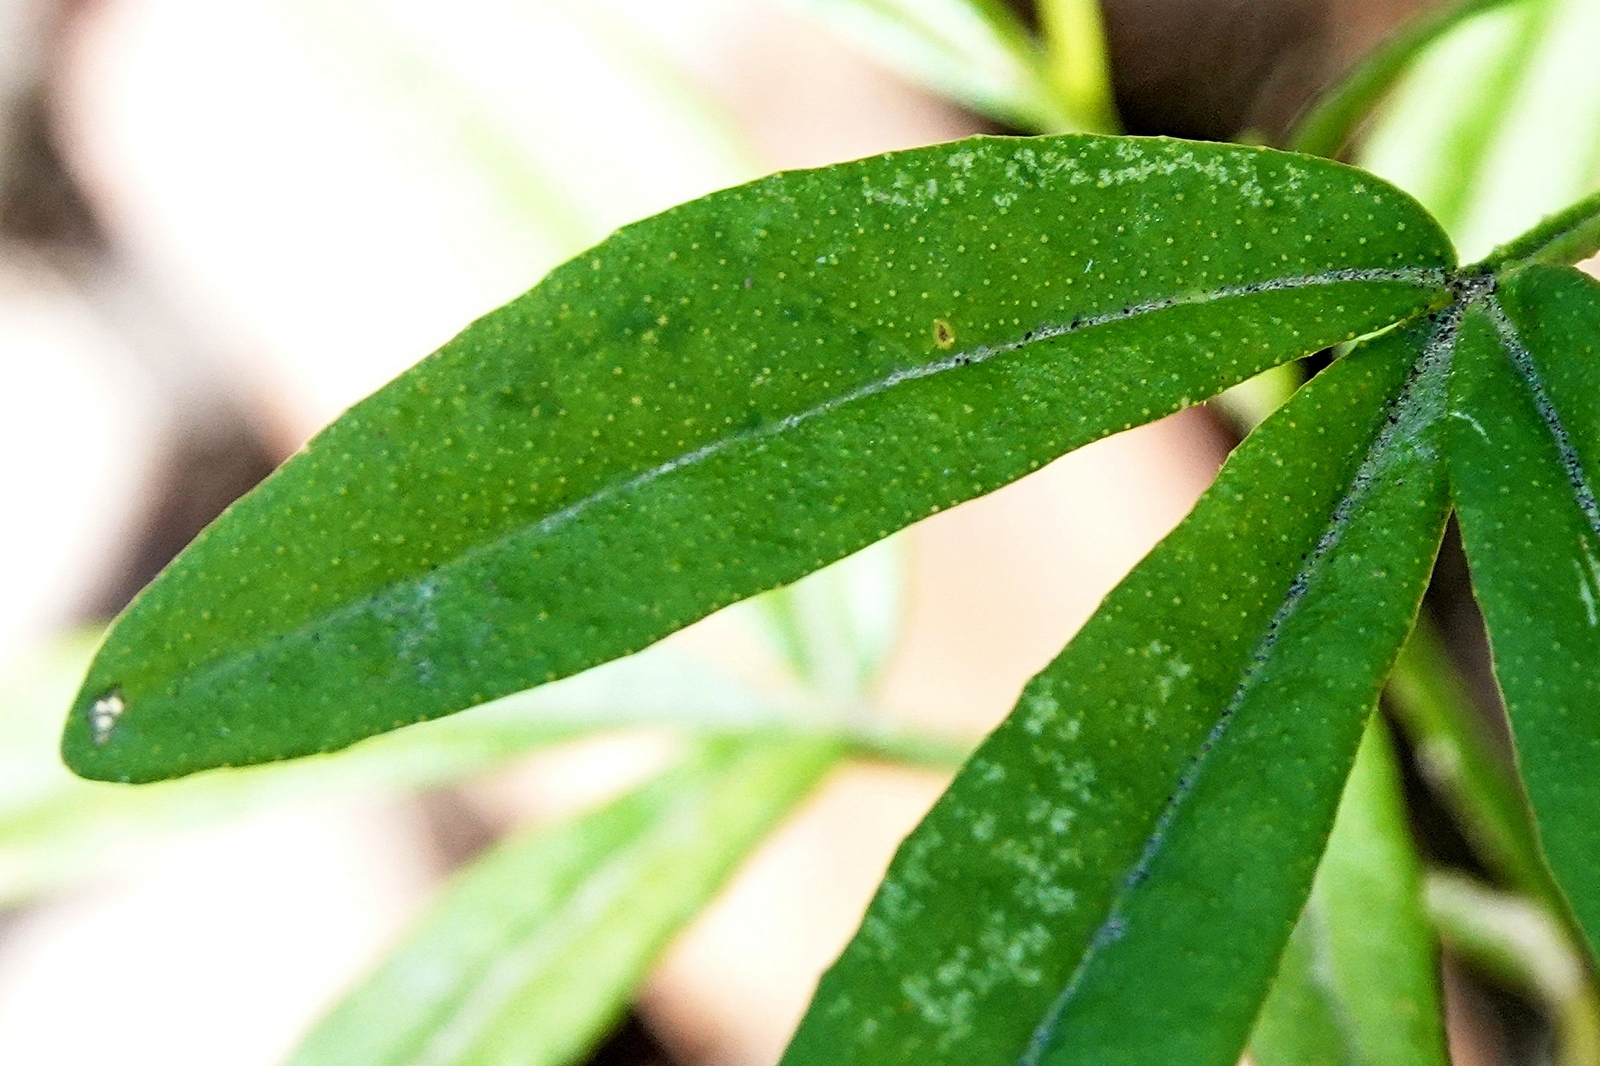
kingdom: Plantae
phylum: Tracheophyta
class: Magnoliopsida
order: Sapindales
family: Rutaceae
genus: Zieria
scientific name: Zieria smithii
